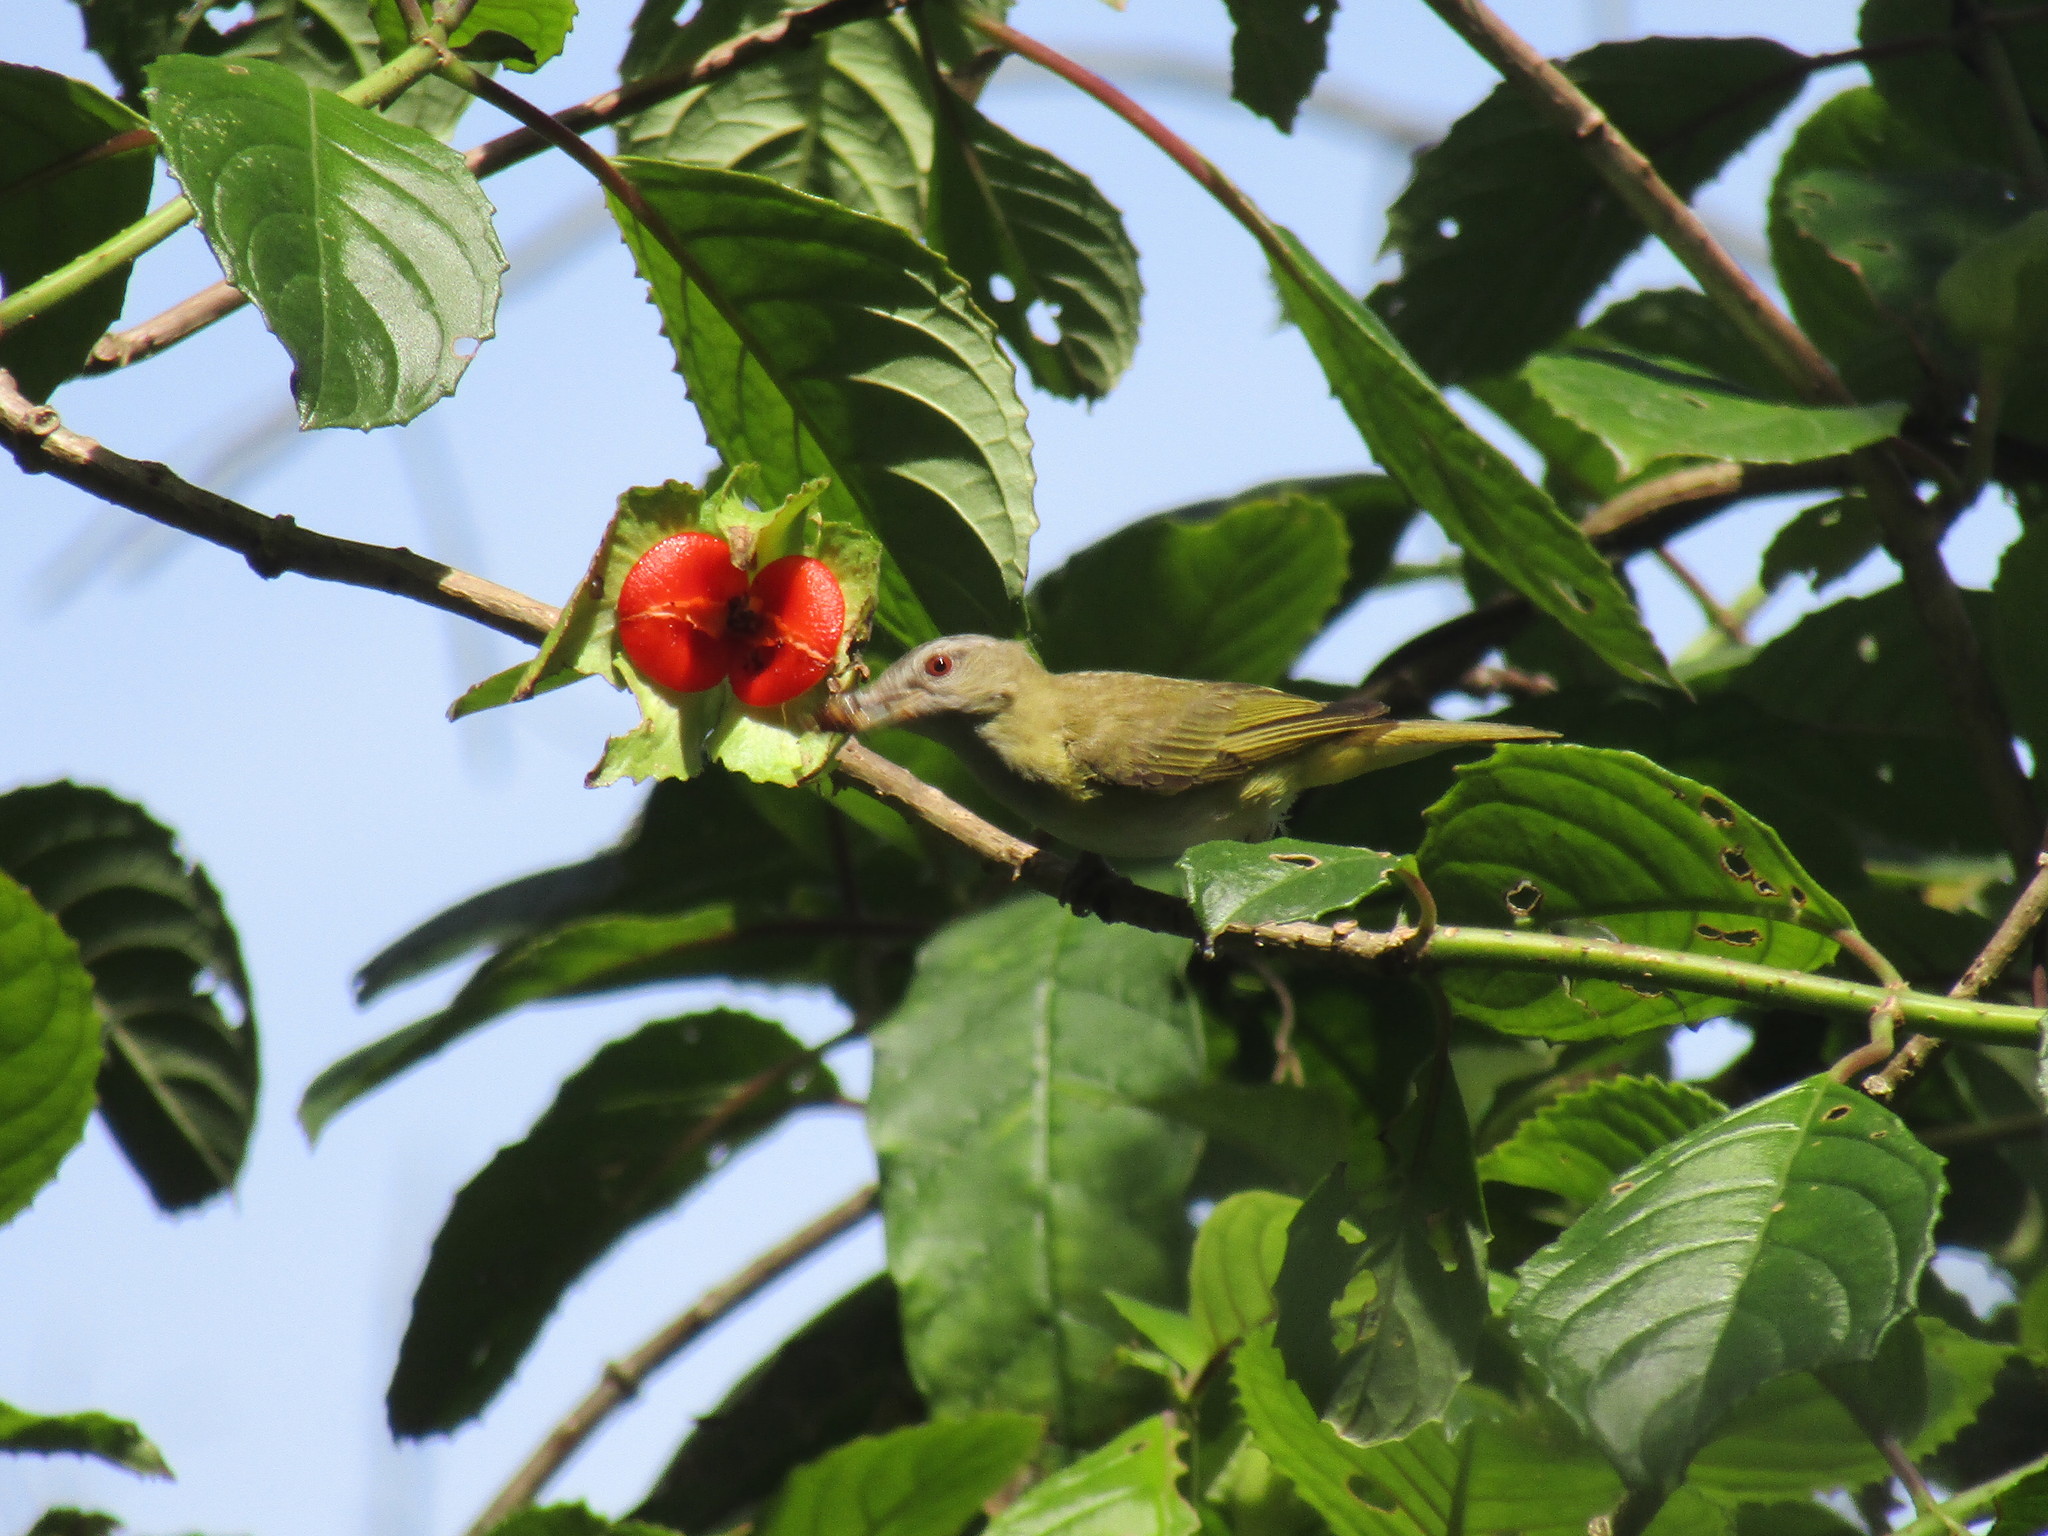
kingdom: Animalia
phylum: Chordata
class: Aves
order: Passeriformes
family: Vireonidae
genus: Vireo
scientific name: Vireo flavoviridis
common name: Yellow-green vireo
